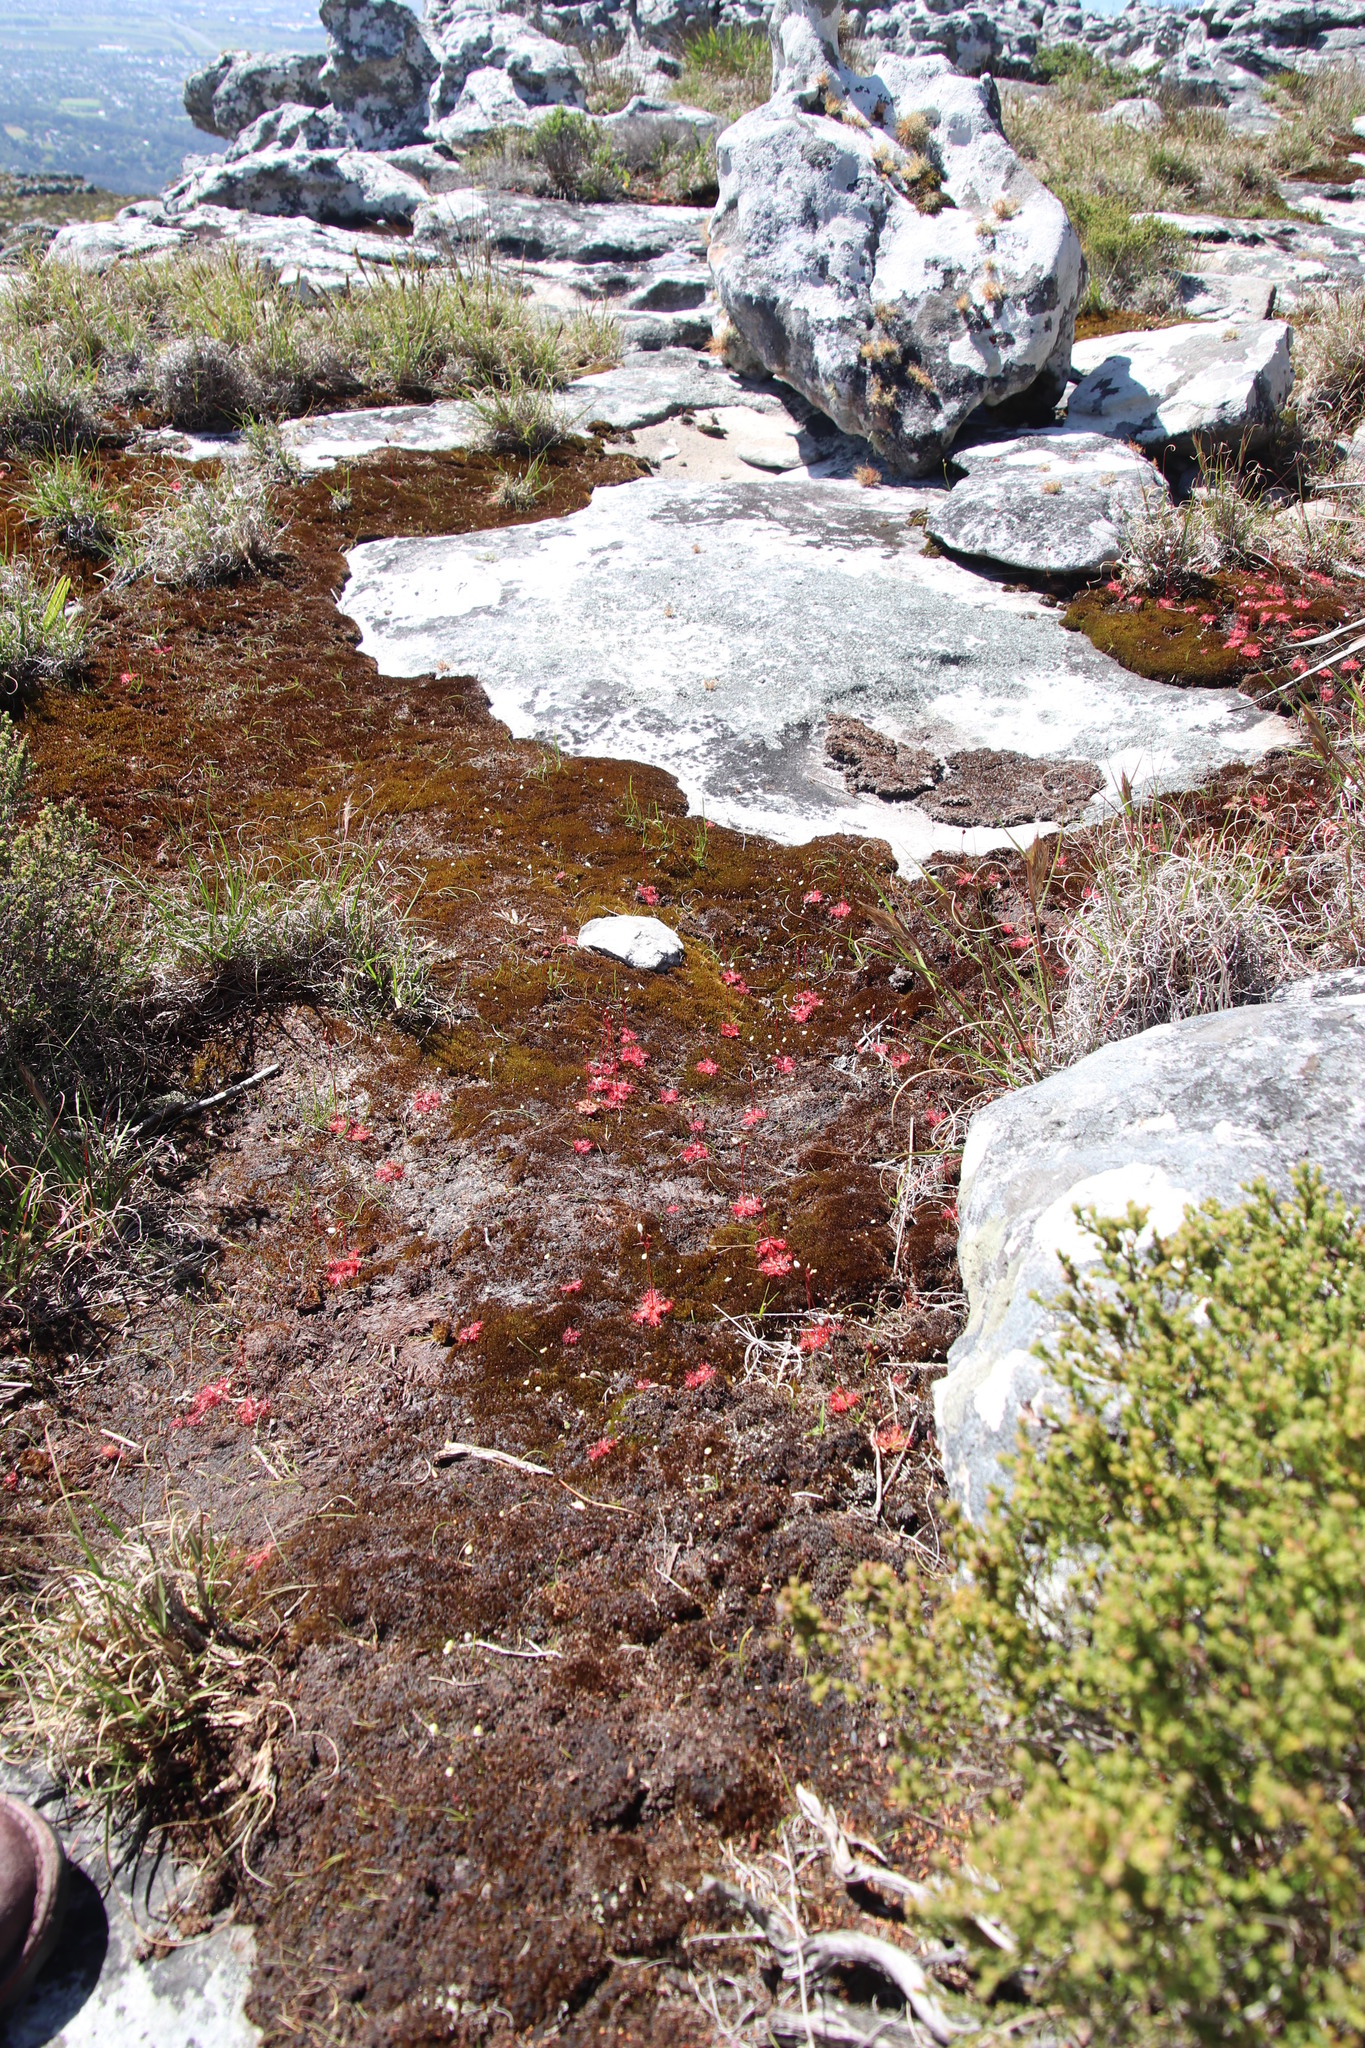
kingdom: Plantae
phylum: Tracheophyta
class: Magnoliopsida
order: Caryophyllales
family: Droseraceae
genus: Drosera
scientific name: Drosera trinervia
